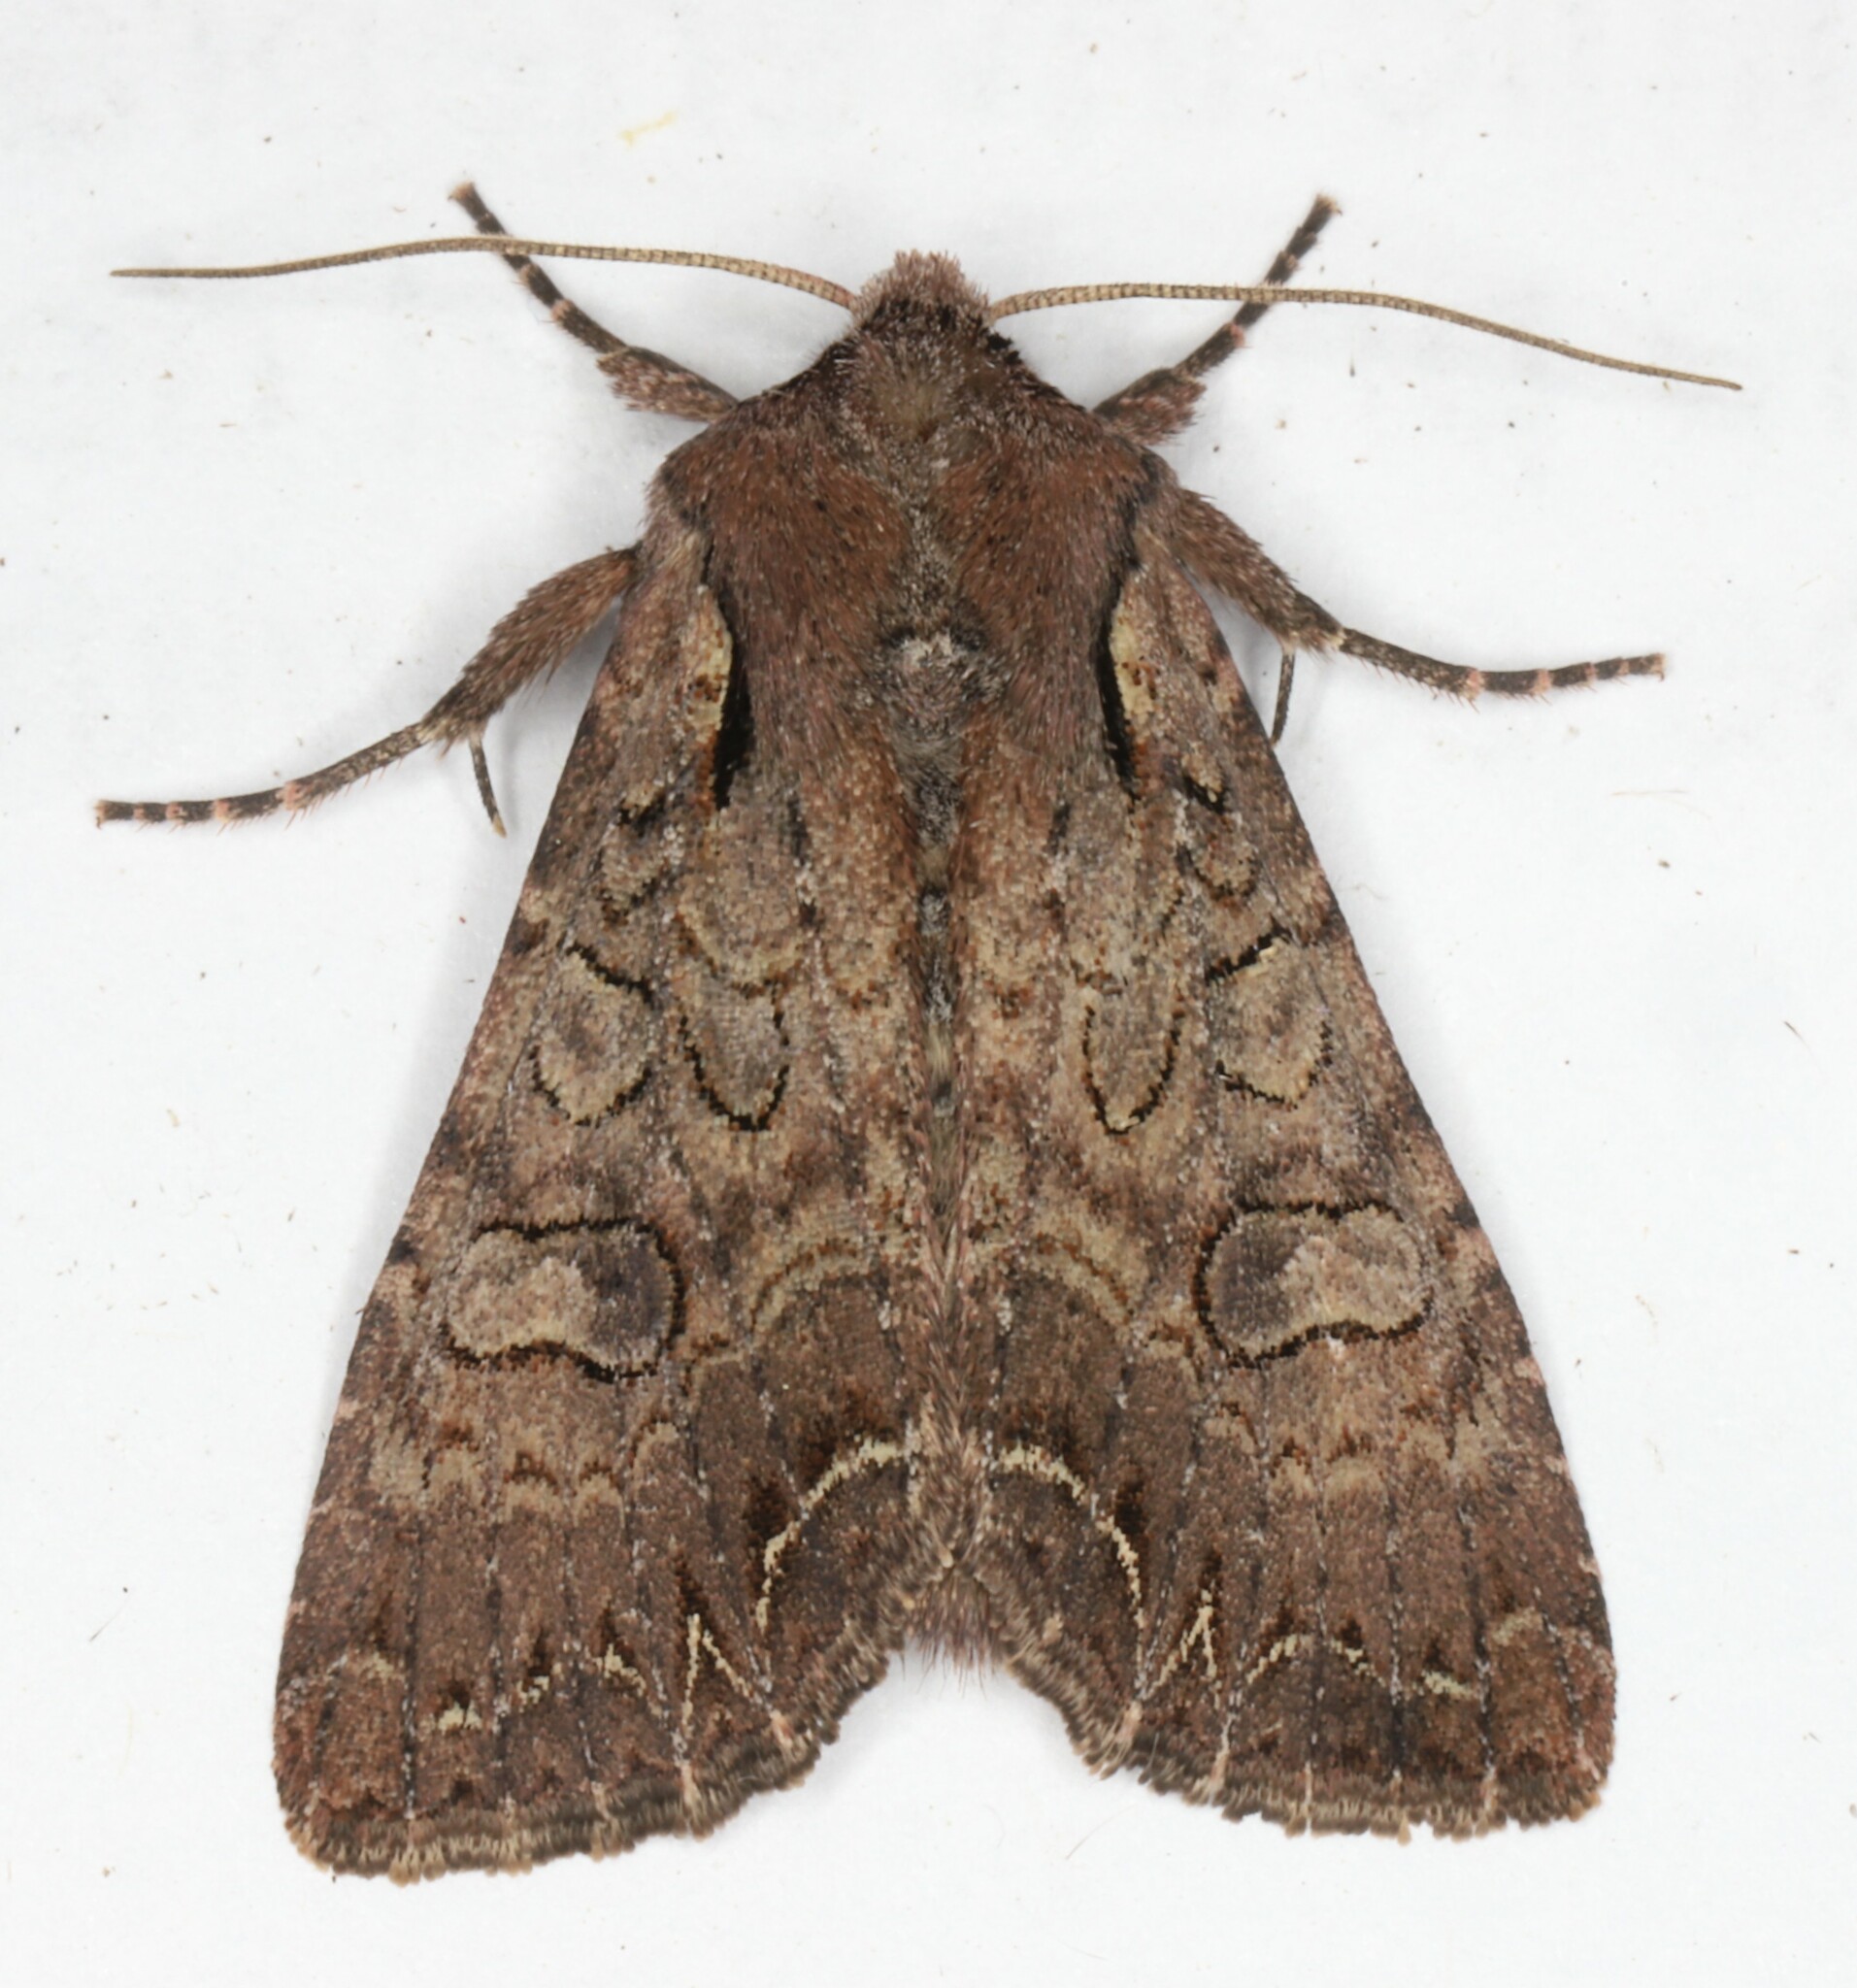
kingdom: Animalia
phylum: Arthropoda
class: Insecta
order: Lepidoptera
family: Noctuidae
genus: Lacanobia
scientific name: Lacanobia radix
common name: Garden arches moth
